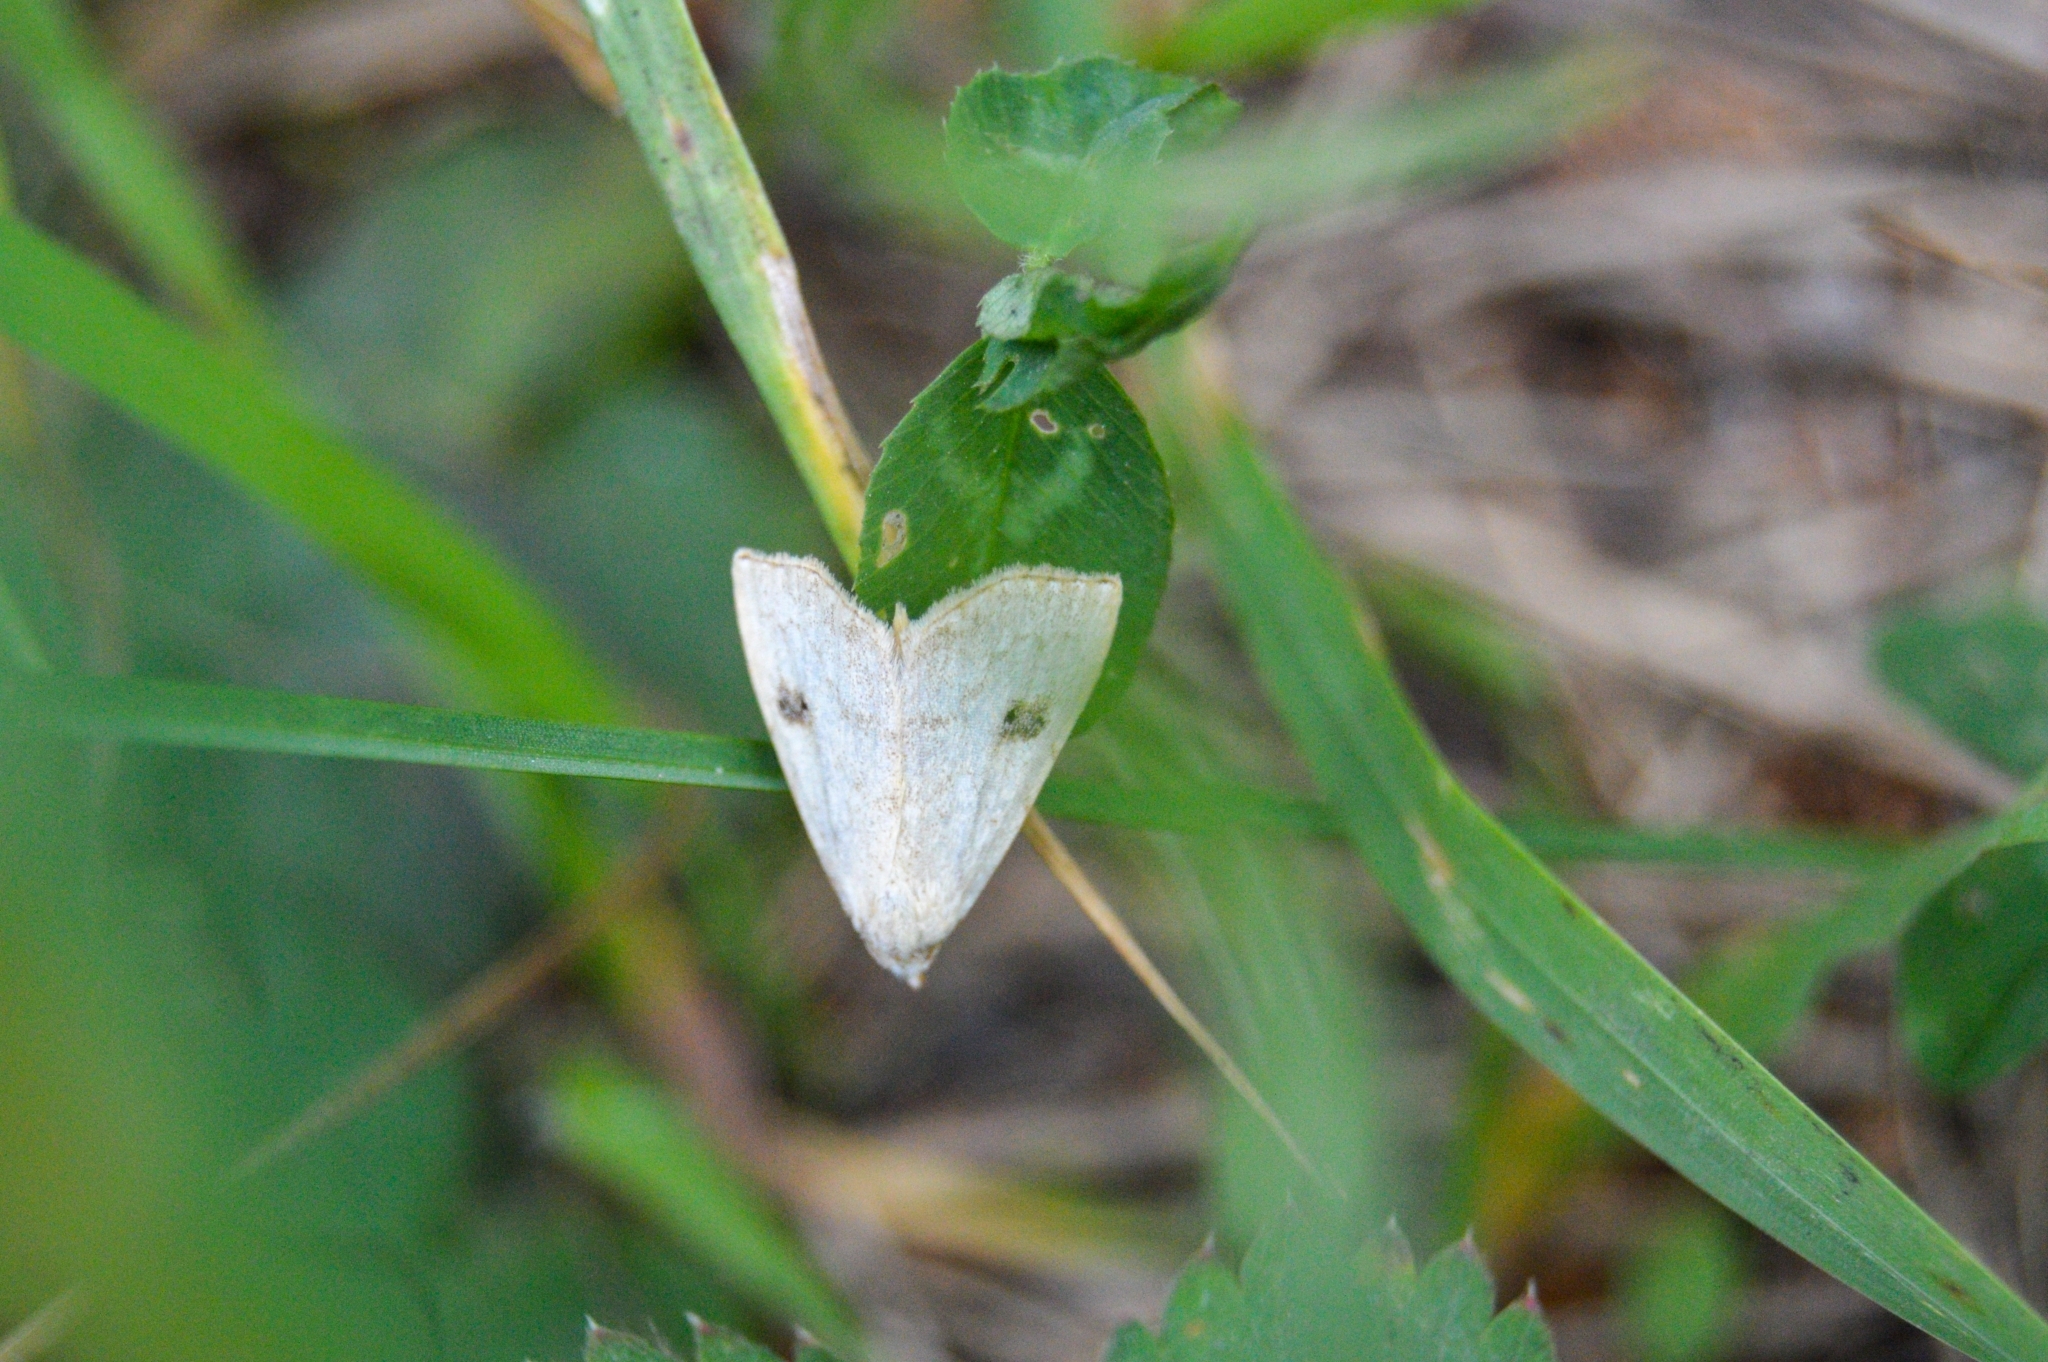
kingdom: Animalia
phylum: Arthropoda
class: Insecta
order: Lepidoptera
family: Erebidae
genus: Rivula
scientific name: Rivula sericealis
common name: Straw dot
